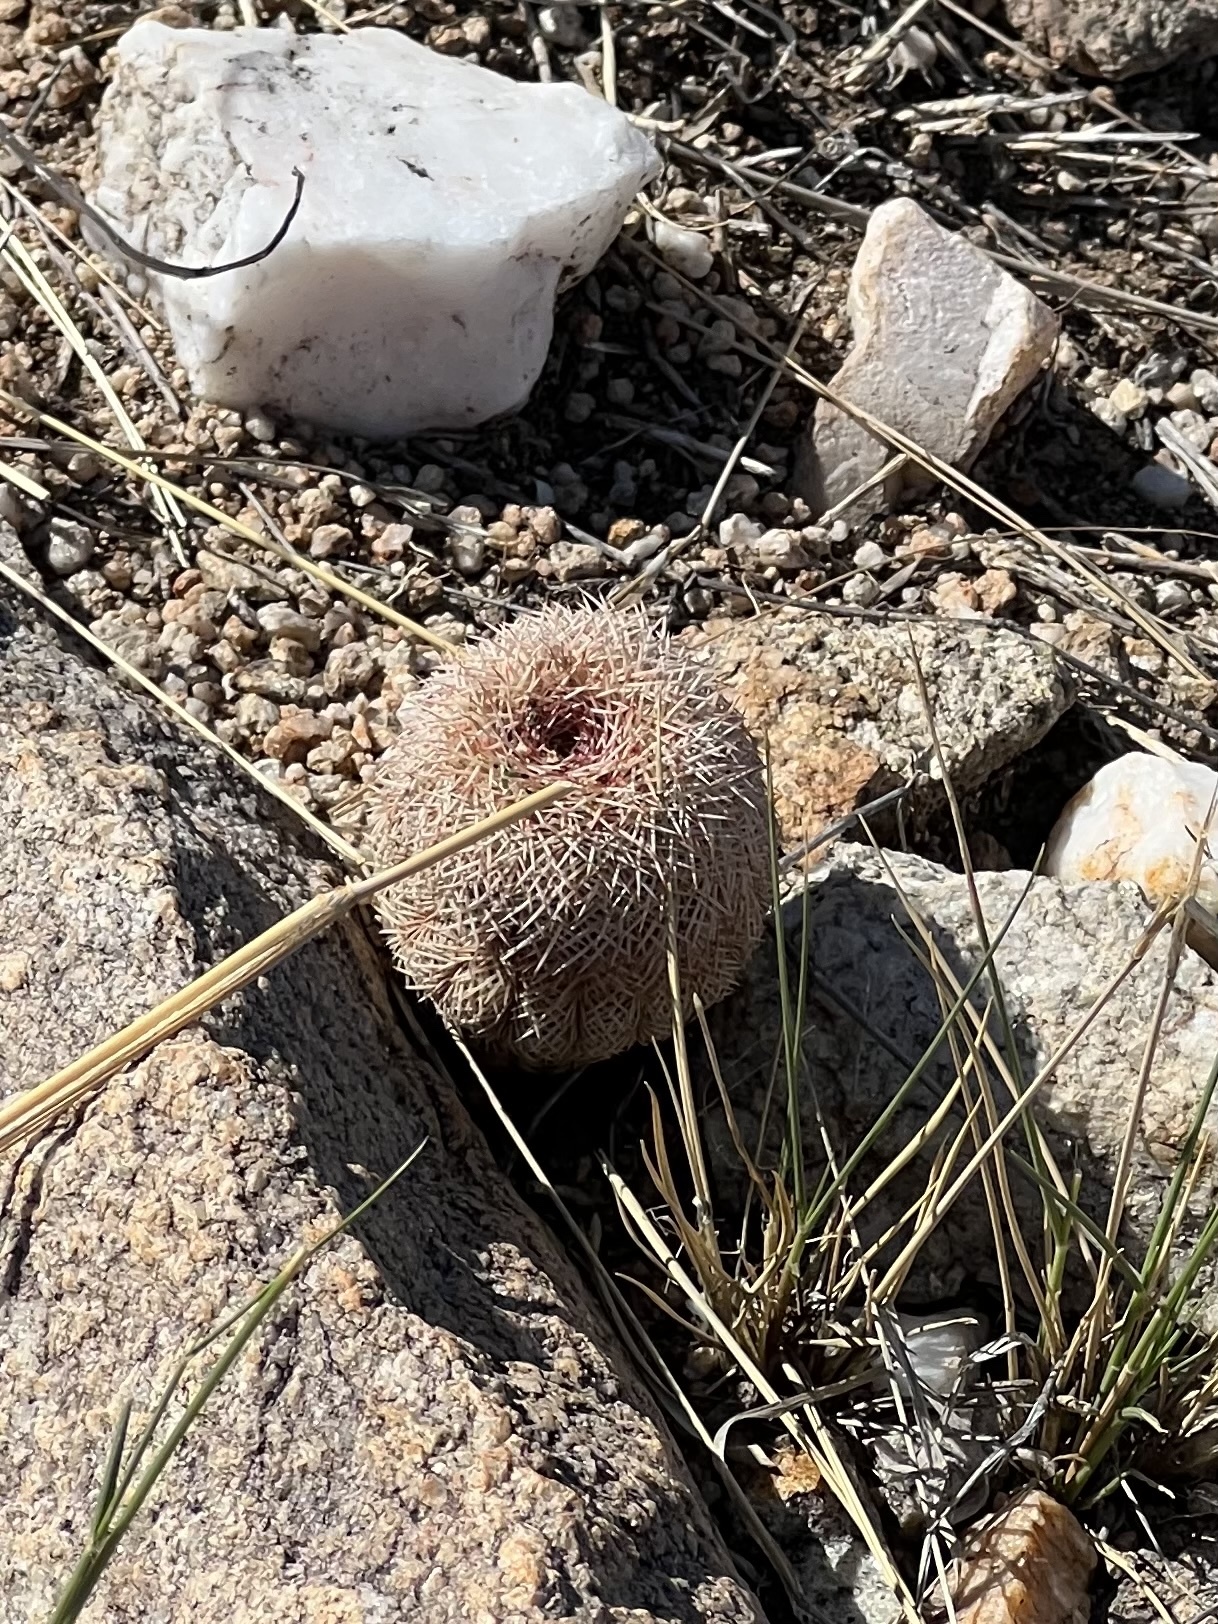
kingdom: Plantae
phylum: Tracheophyta
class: Magnoliopsida
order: Caryophyllales
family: Cactaceae
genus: Echinocereus
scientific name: Echinocereus rigidissimus
